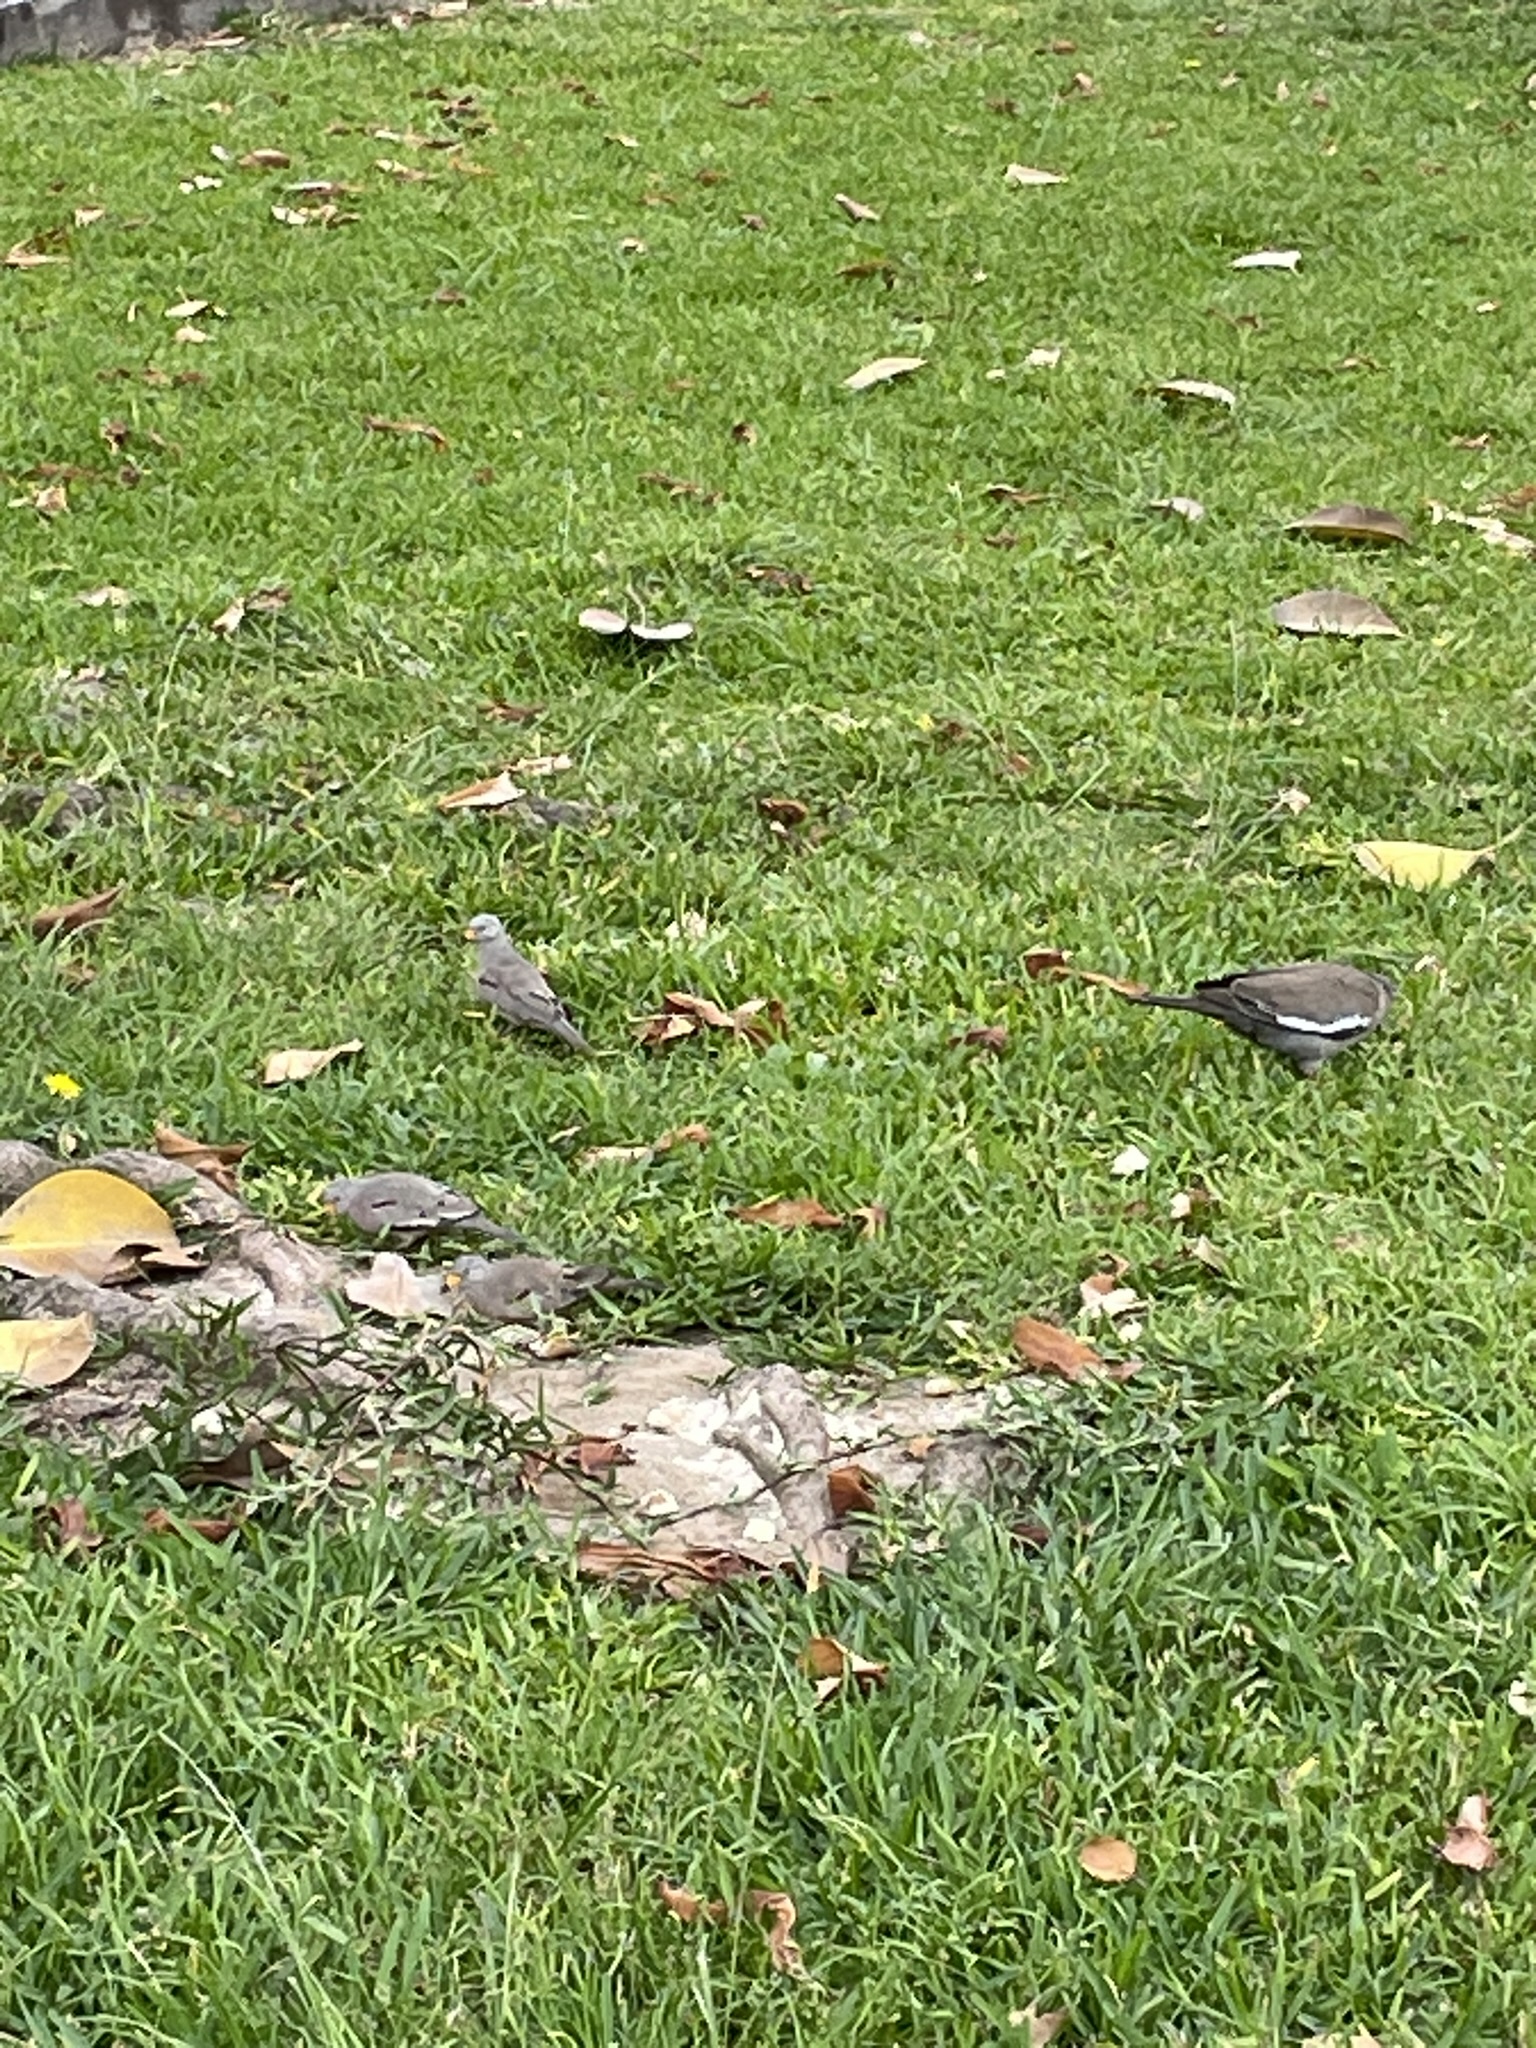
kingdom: Animalia
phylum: Chordata
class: Aves
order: Columbiformes
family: Columbidae
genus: Columbina
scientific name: Columbina cruziana
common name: Croaking ground dove
